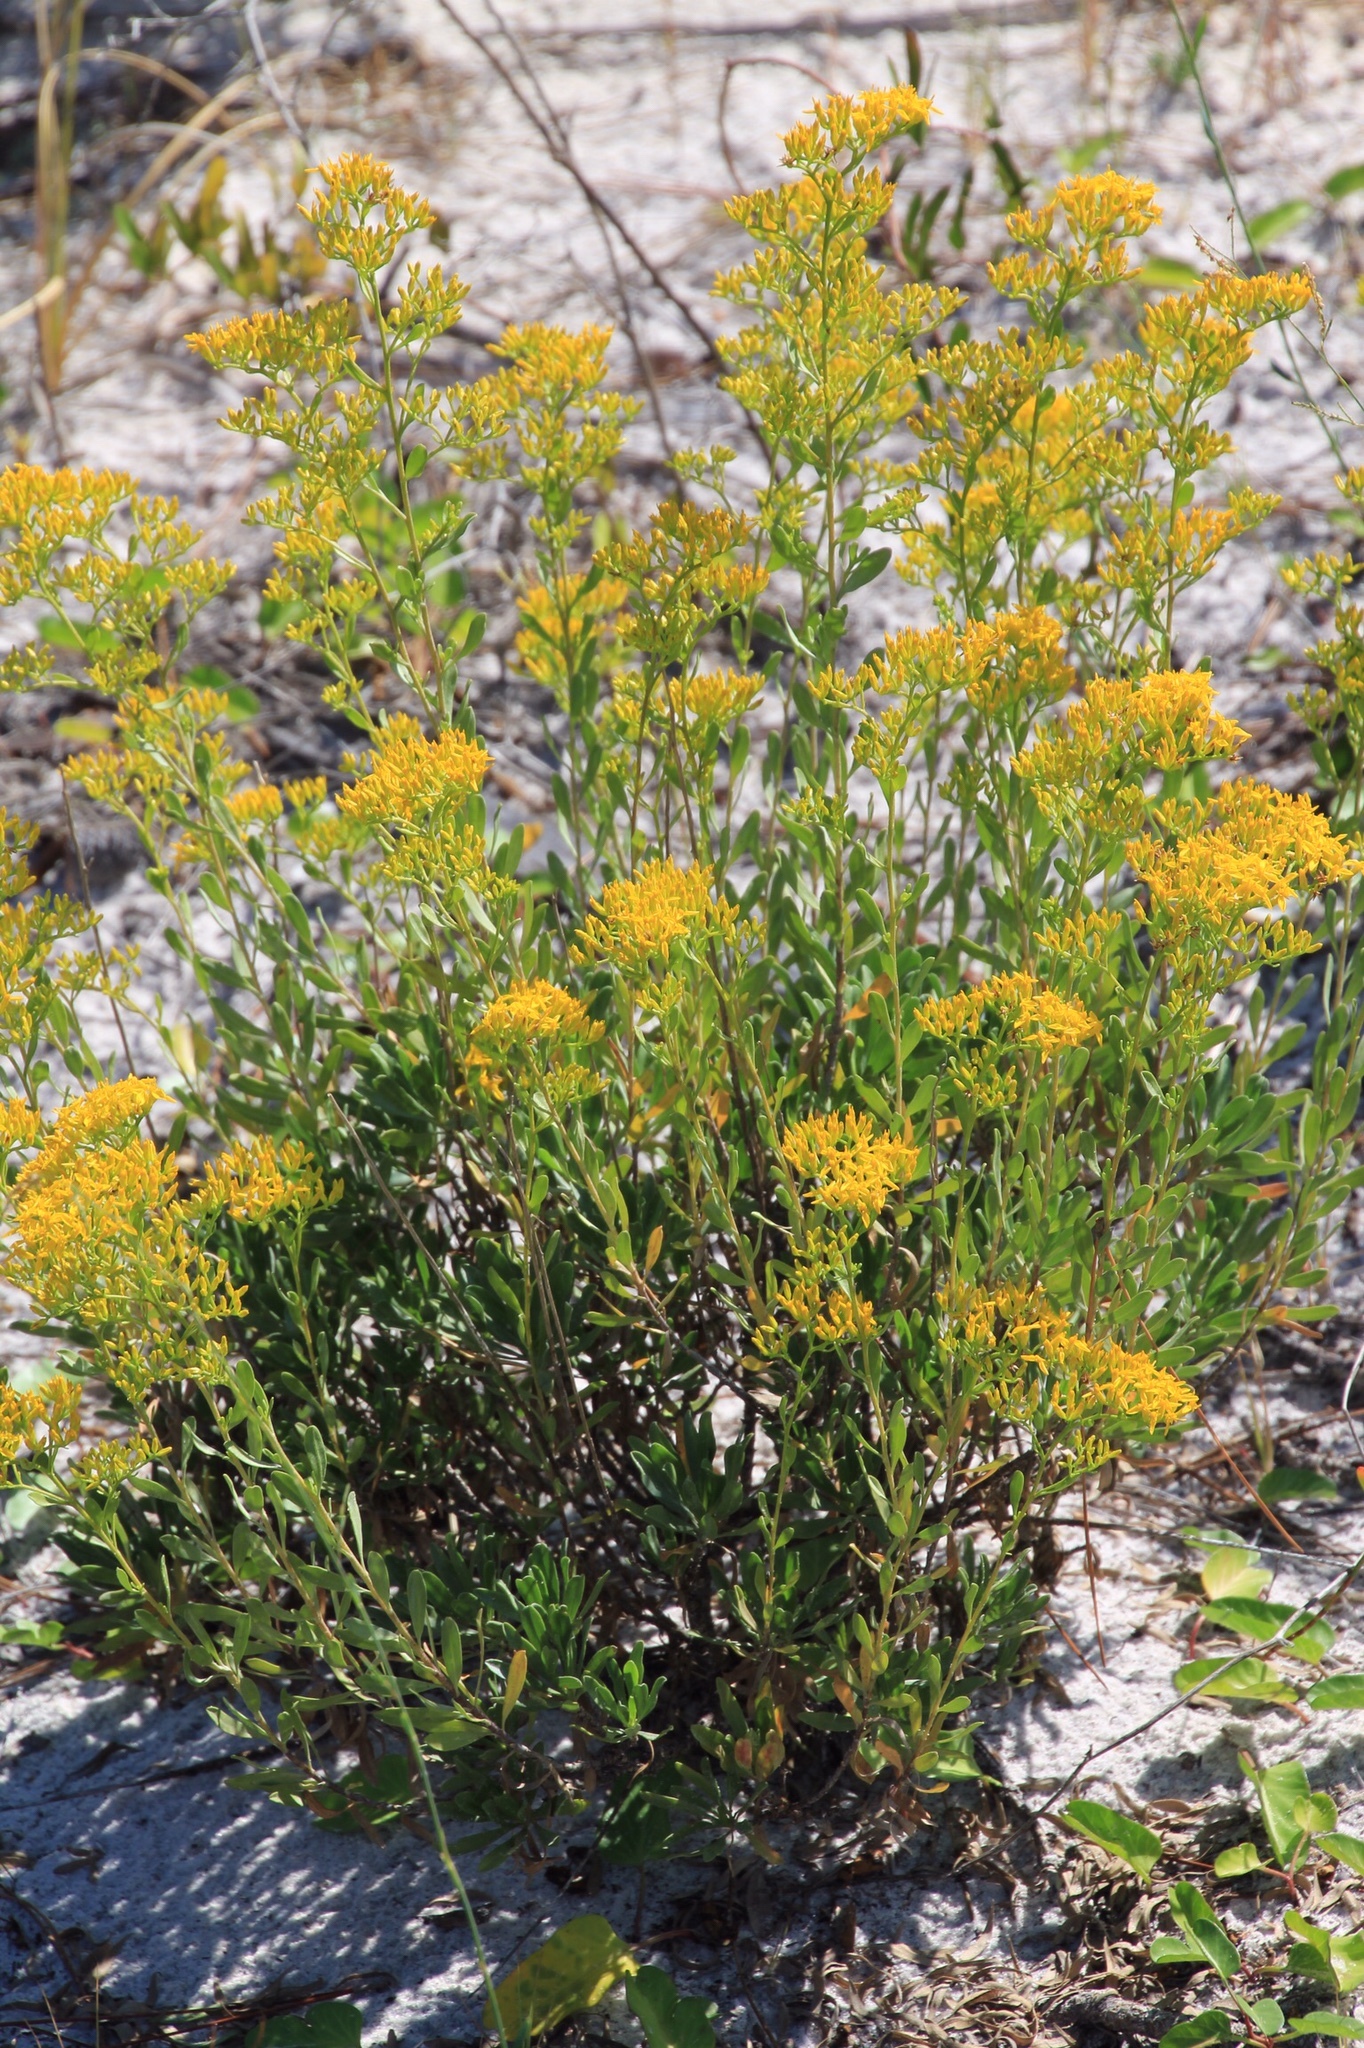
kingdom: Plantae
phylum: Tracheophyta
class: Magnoliopsida
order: Asterales
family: Asteraceae
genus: Chrysoma
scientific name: Chrysoma pauciflosculosa
